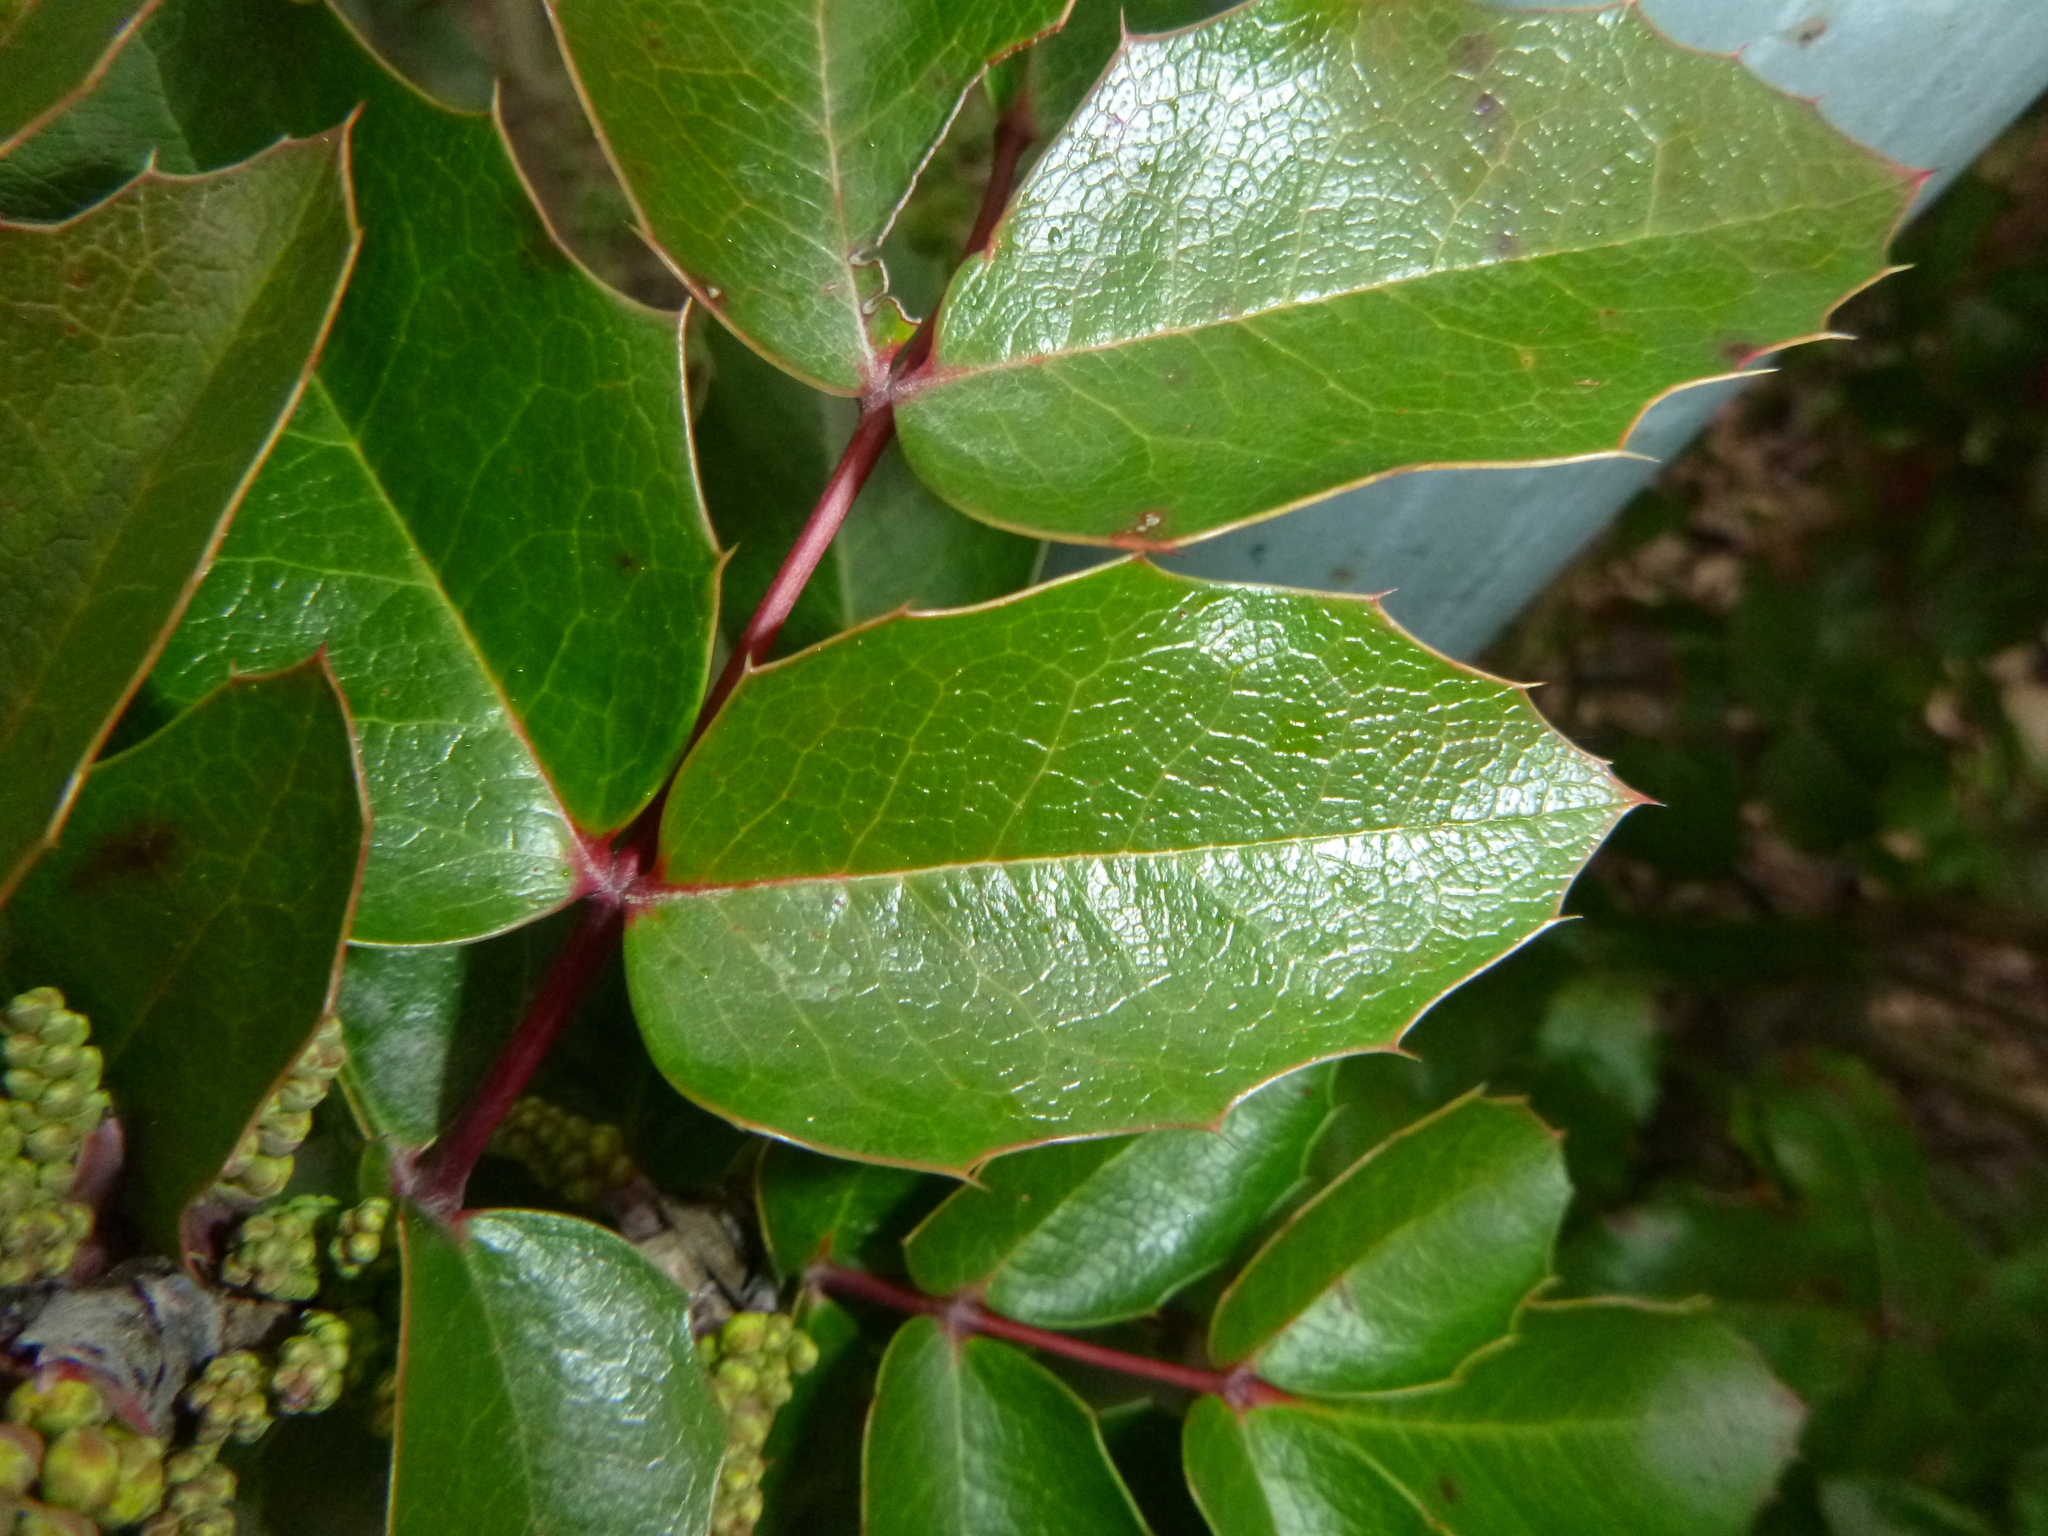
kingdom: Plantae
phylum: Tracheophyta
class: Magnoliopsida
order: Ranunculales
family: Berberidaceae
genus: Mahonia
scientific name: Mahonia aquifolium
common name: Oregon-grape
